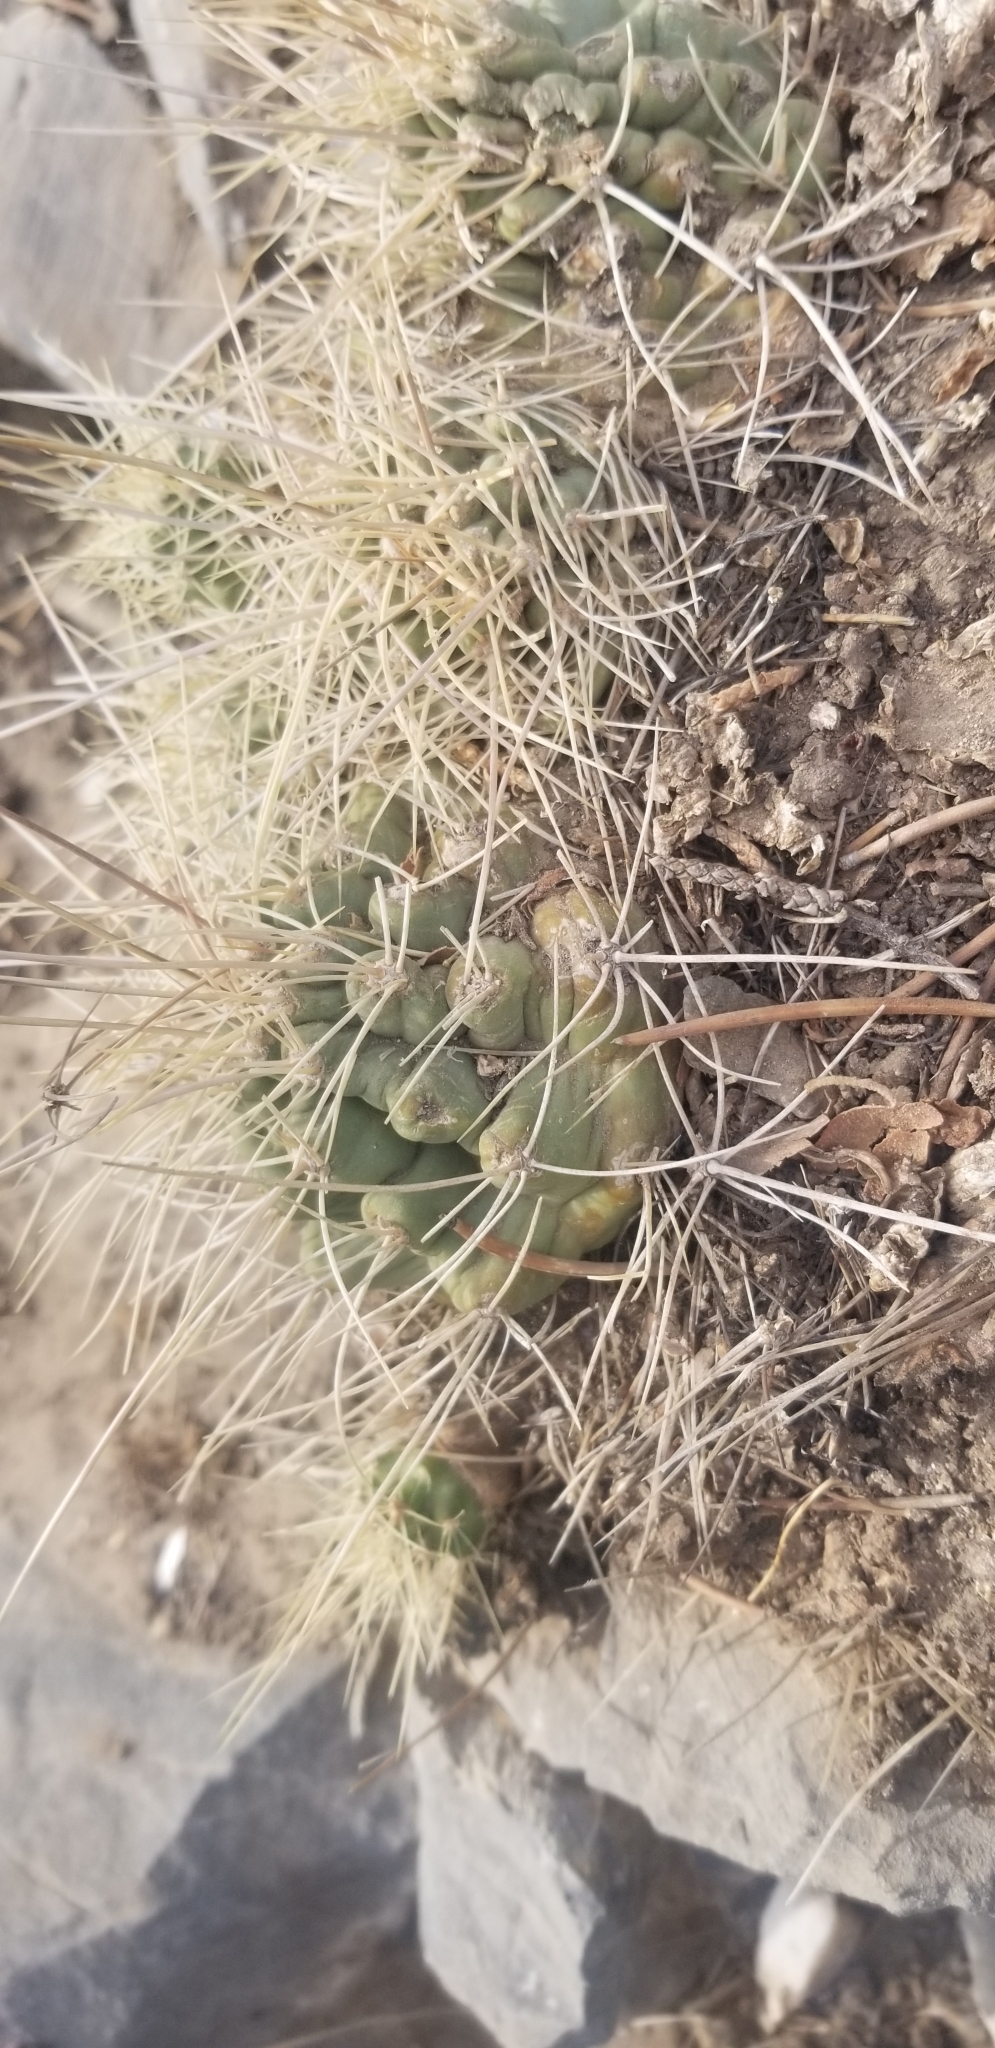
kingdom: Plantae
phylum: Tracheophyta
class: Magnoliopsida
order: Caryophyllales
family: Cactaceae
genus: Echinocereus
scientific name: Echinocereus triglochidiatus
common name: Claretcup hedgehog
